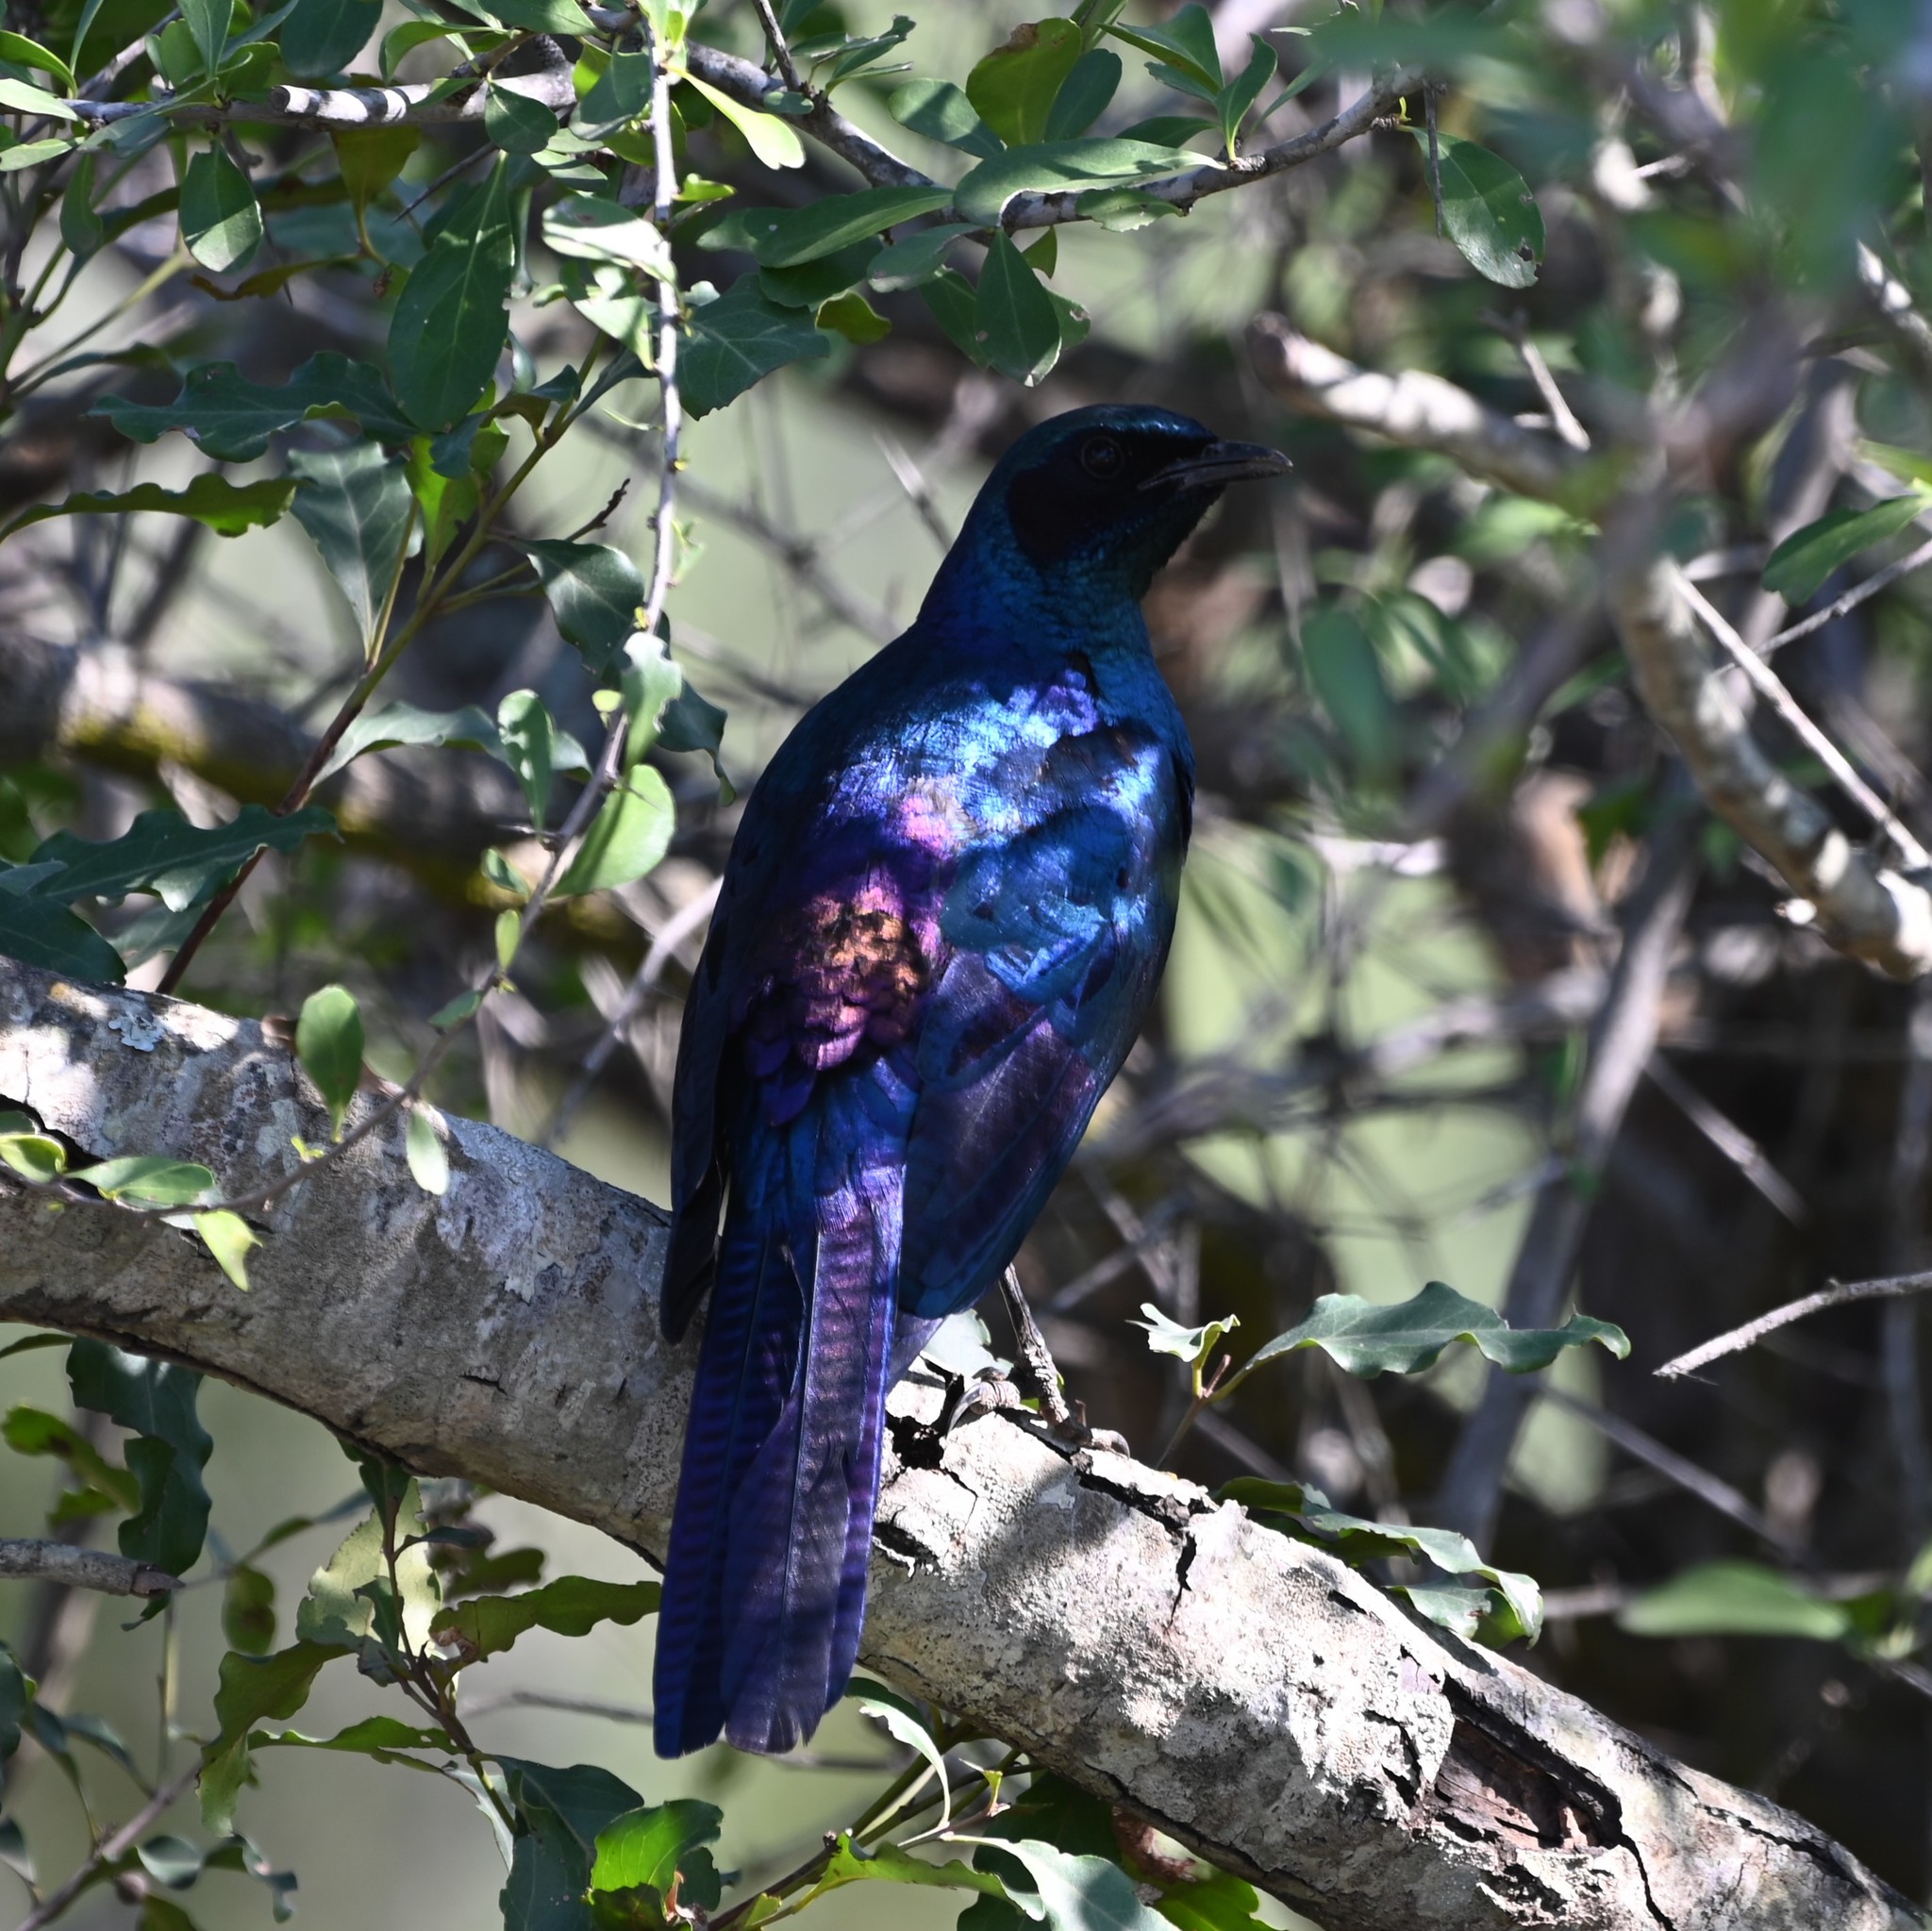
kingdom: Animalia
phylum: Chordata
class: Aves
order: Passeriformes
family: Sturnidae
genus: Lamprotornis
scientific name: Lamprotornis australis
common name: Burchell's starling
